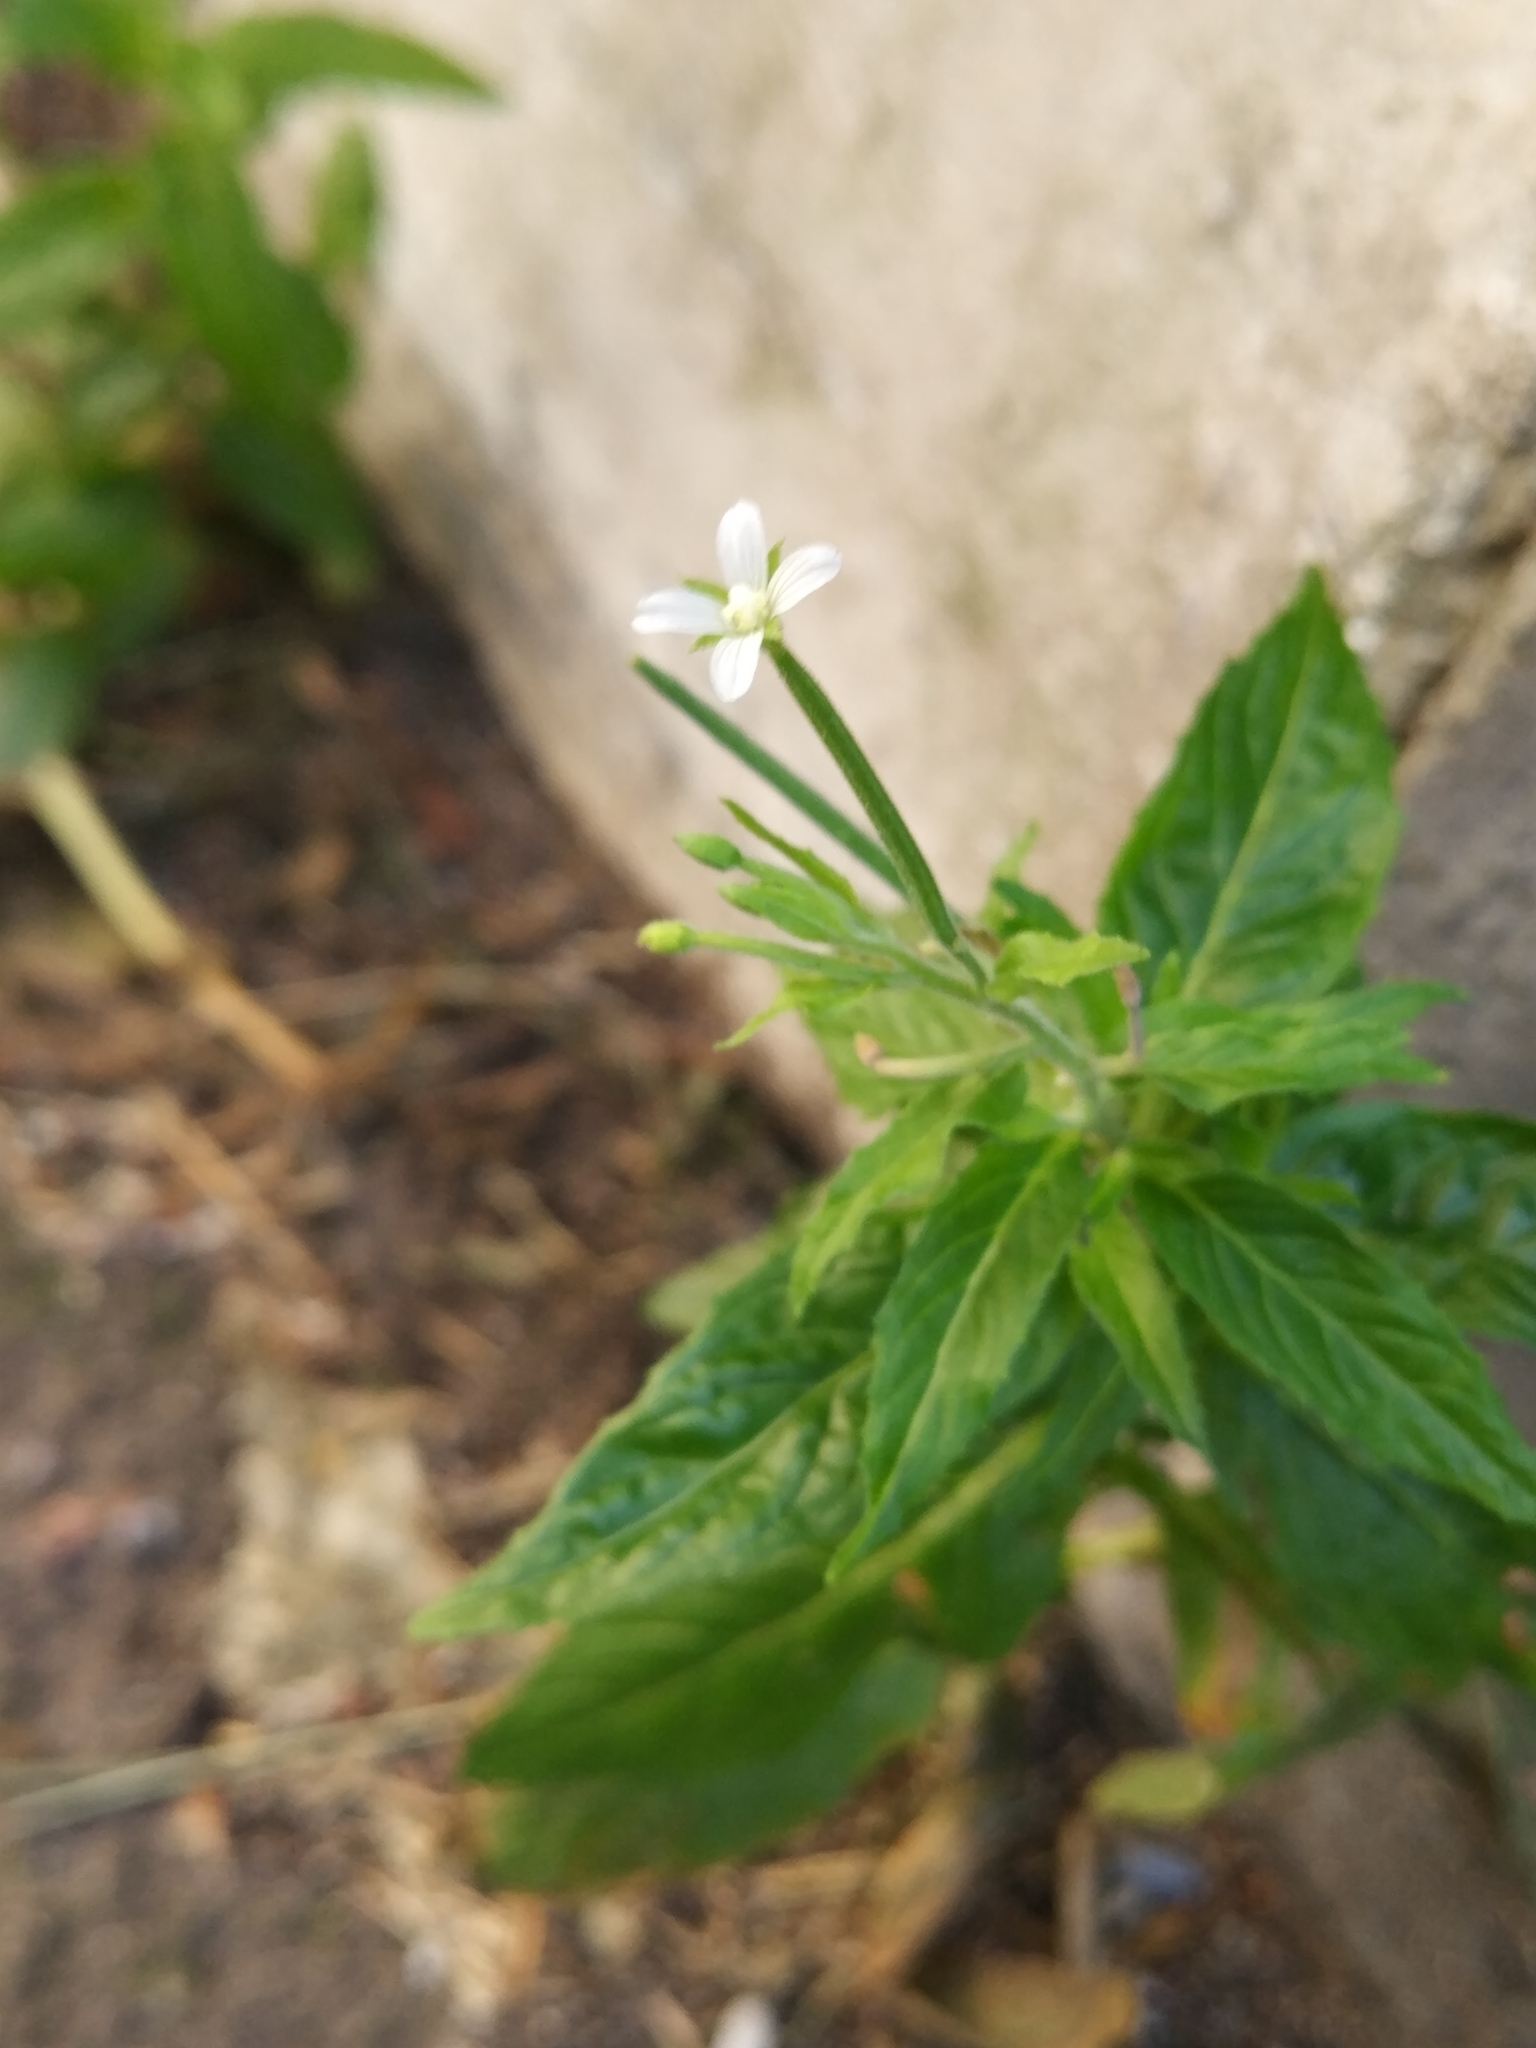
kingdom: Plantae
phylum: Tracheophyta
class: Magnoliopsida
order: Myrtales
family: Onagraceae
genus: Epilobium
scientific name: Epilobium pseudorubescens
